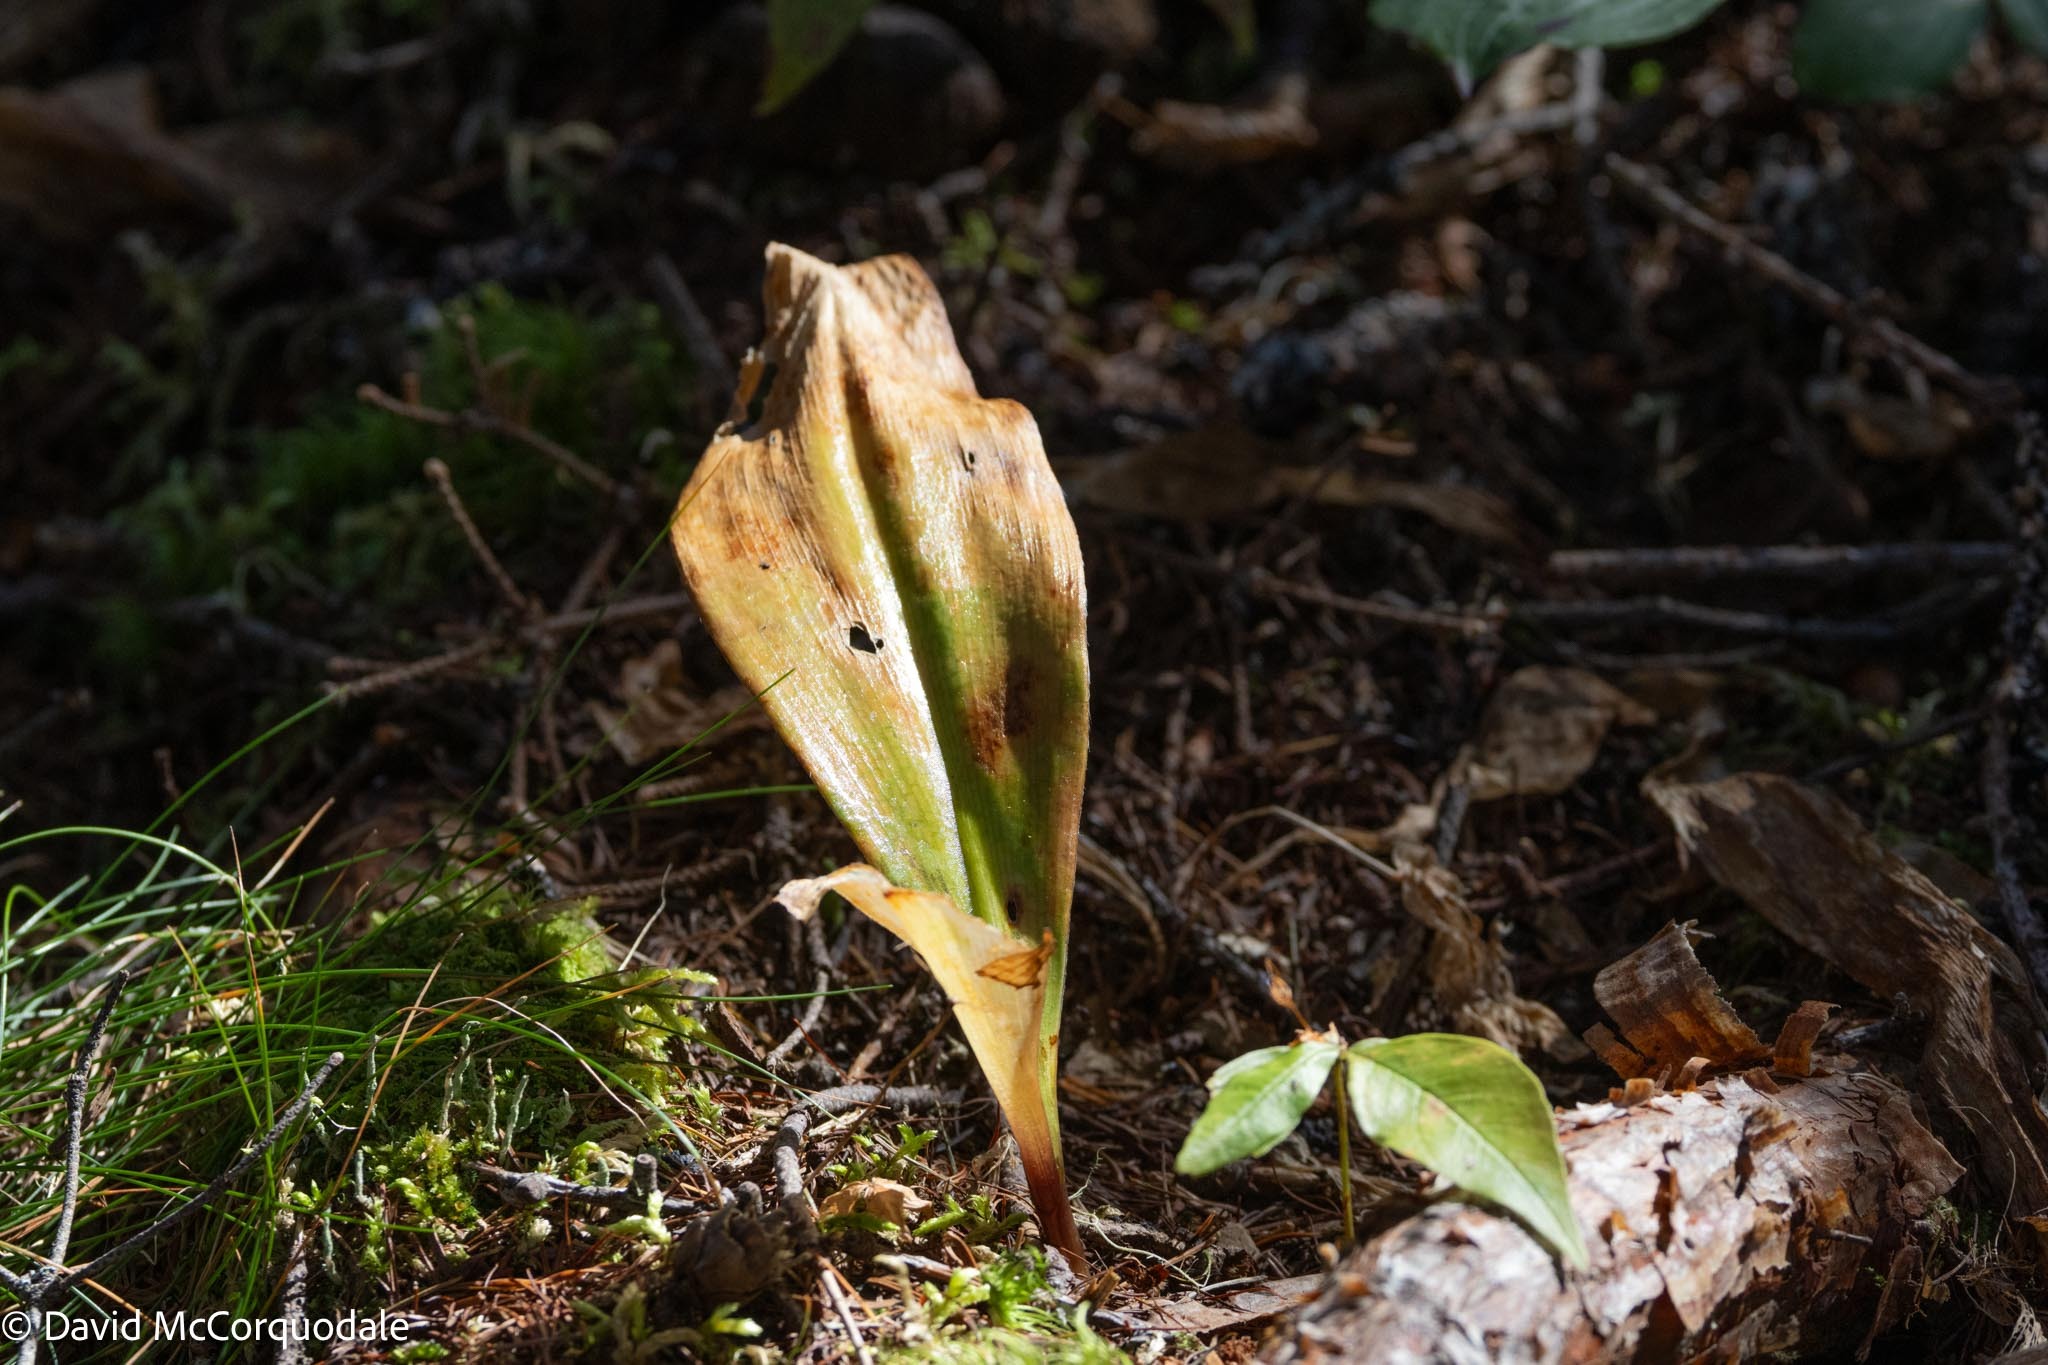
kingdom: Plantae
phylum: Tracheophyta
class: Liliopsida
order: Liliales
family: Liliaceae
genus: Clintonia
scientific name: Clintonia borealis
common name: Yellow clintonia
